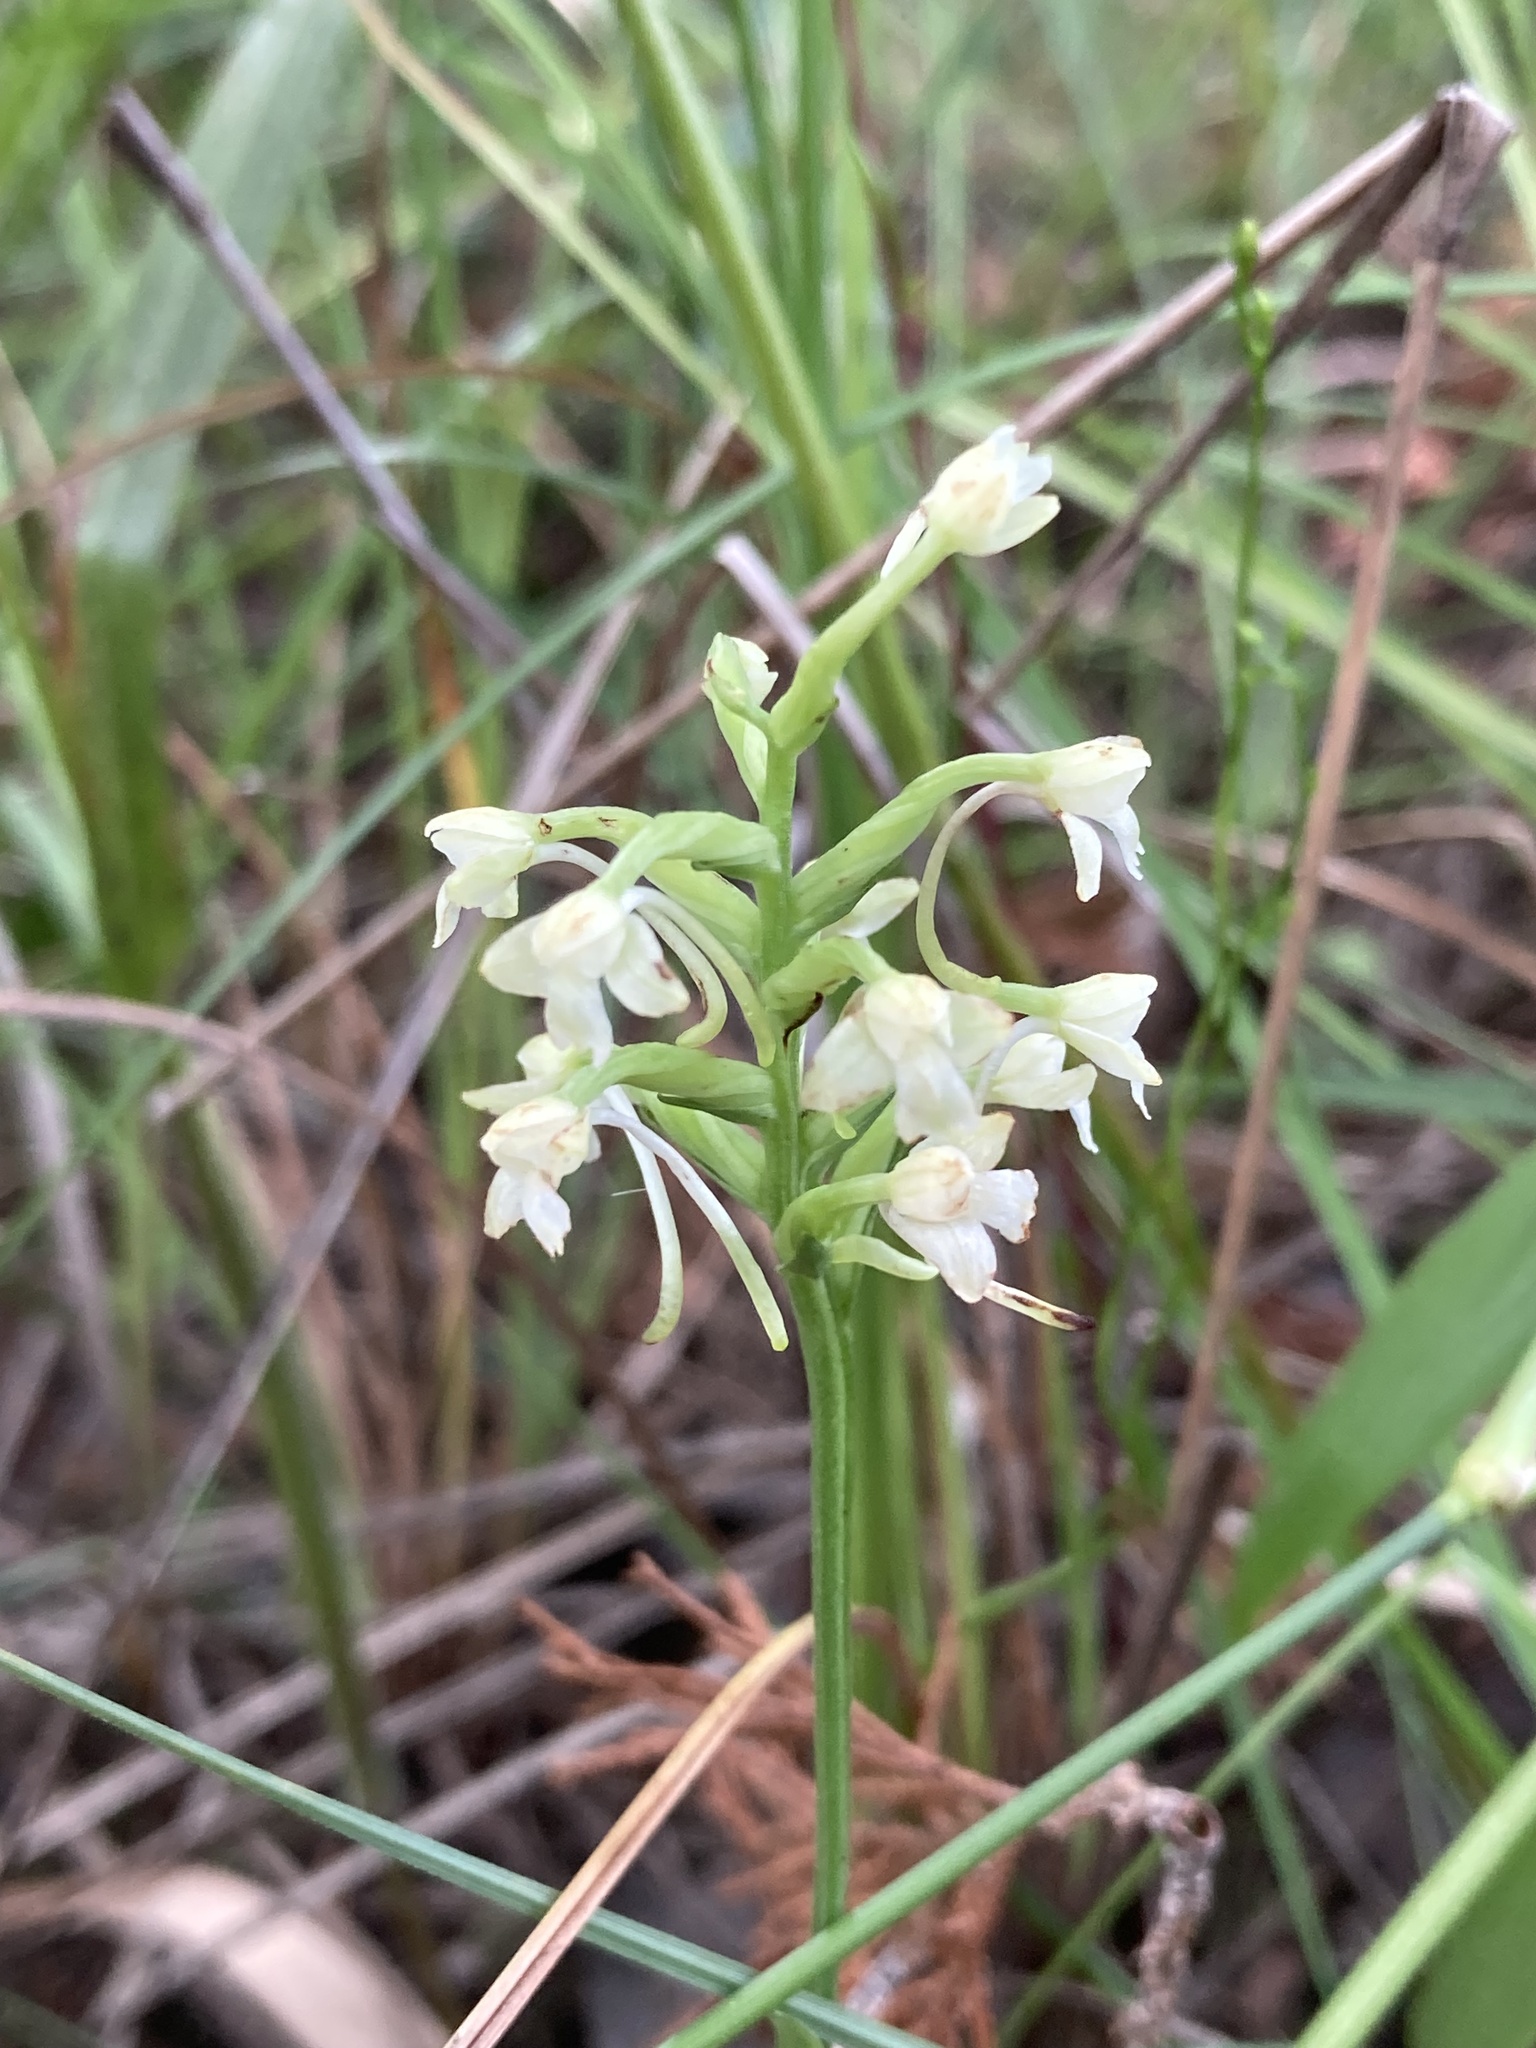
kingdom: Plantae
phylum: Tracheophyta
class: Liliopsida
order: Asparagales
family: Orchidaceae
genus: Platanthera
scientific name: Platanthera clavellata
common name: Club-spur orchid
